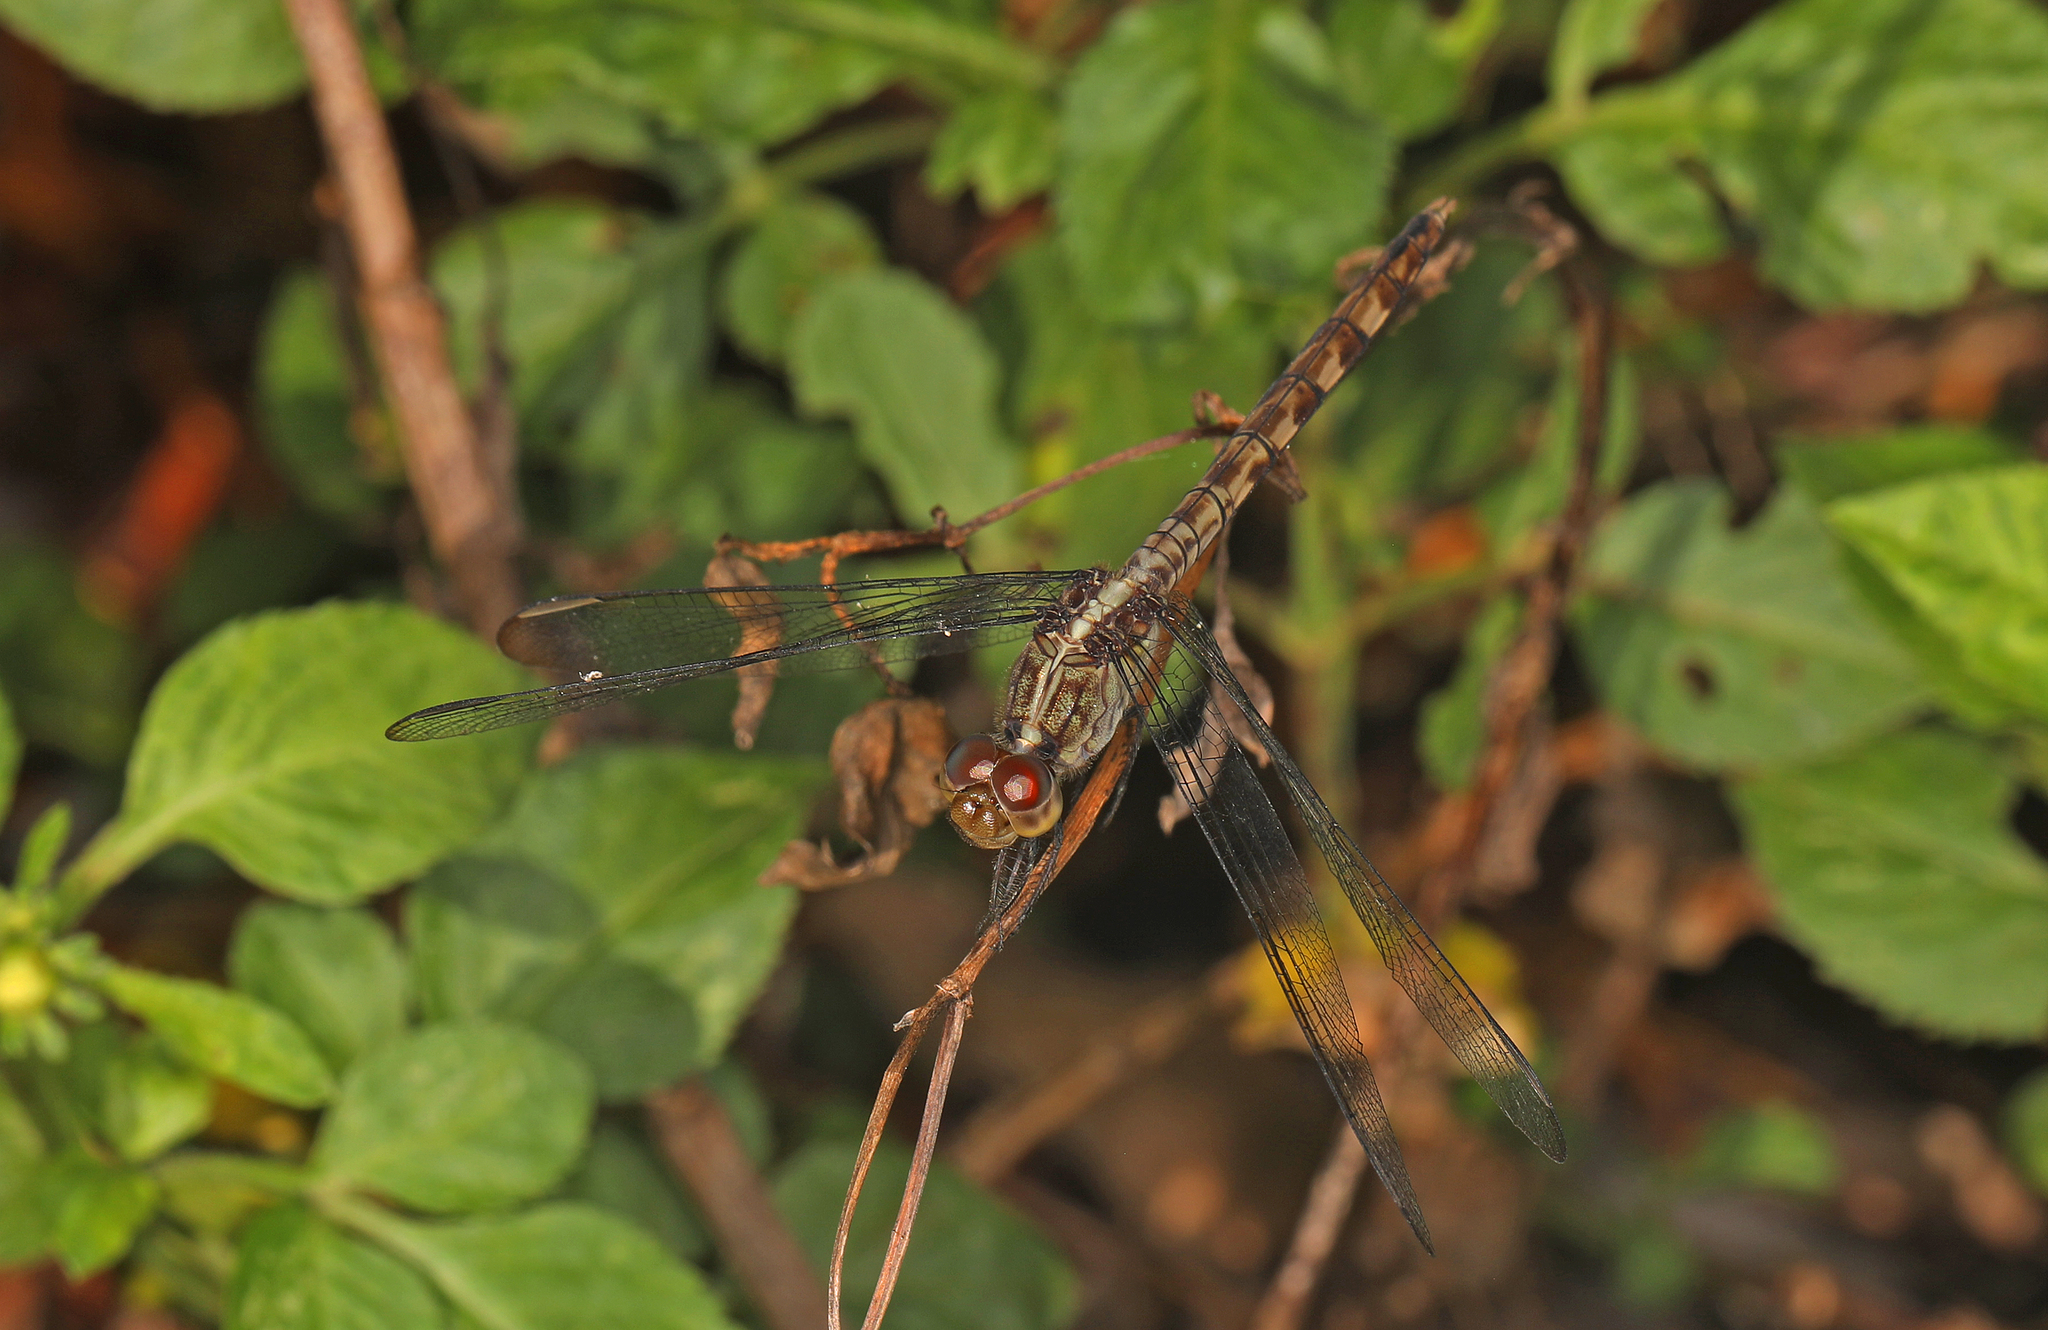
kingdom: Animalia
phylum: Arthropoda
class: Insecta
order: Odonata
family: Libellulidae
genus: Erythrodiplax
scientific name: Erythrodiplax umbrata
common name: Band-winged dragonlet
